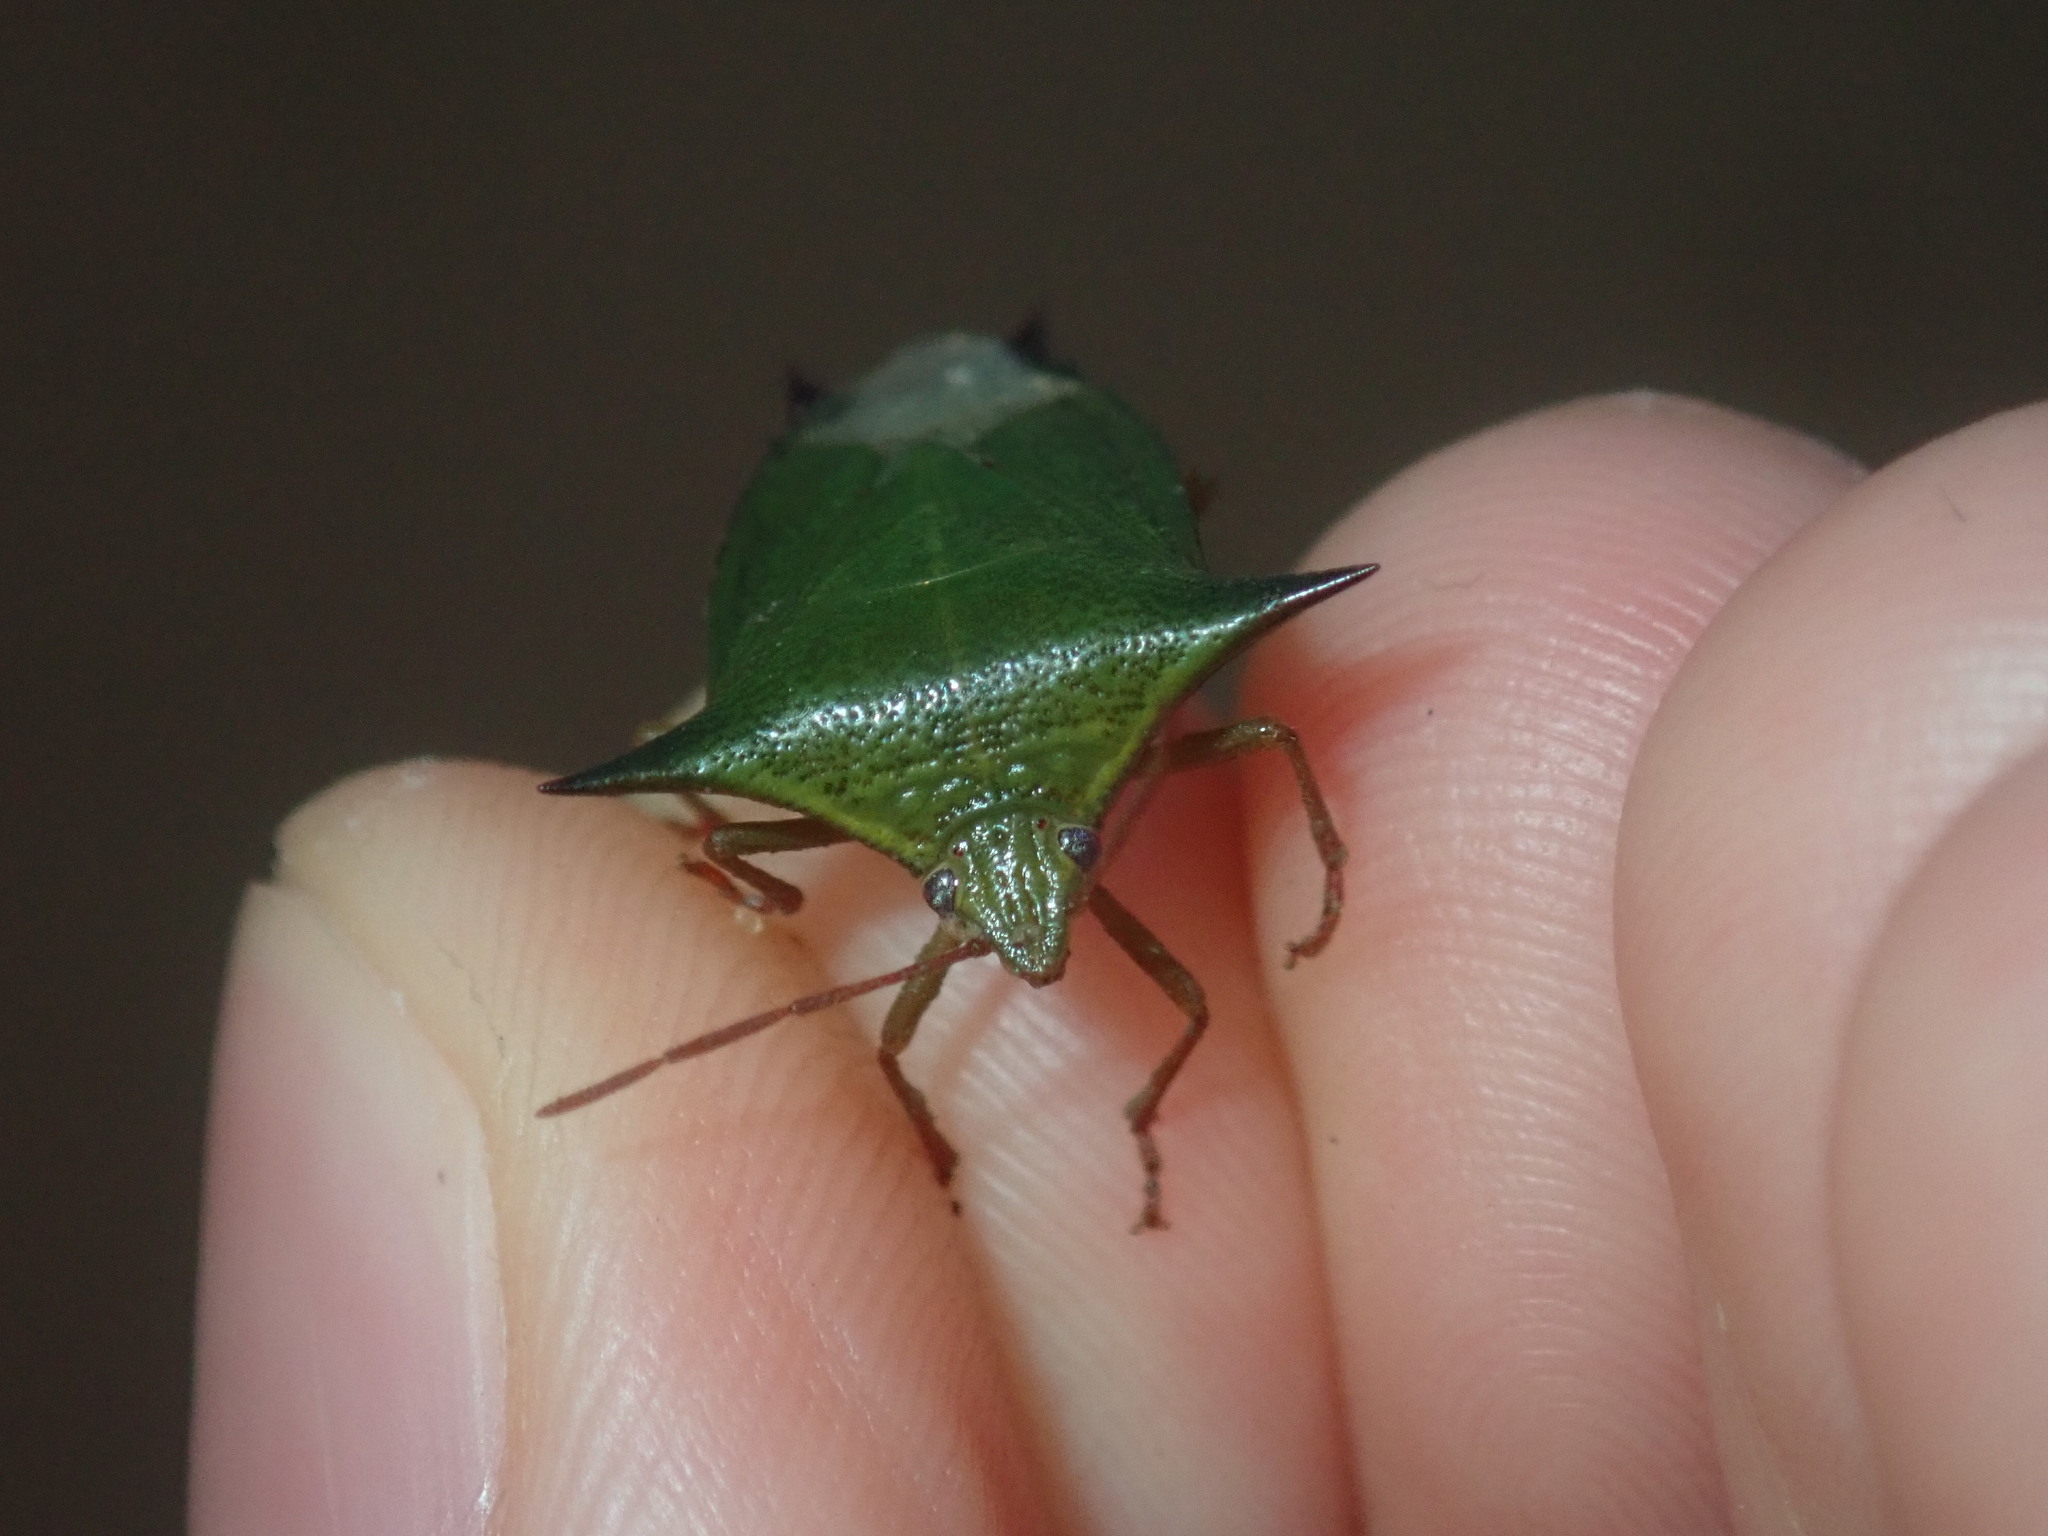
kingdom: Animalia
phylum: Arthropoda
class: Insecta
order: Hemiptera
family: Pentatomidae
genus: Vitellus
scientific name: Vitellus
